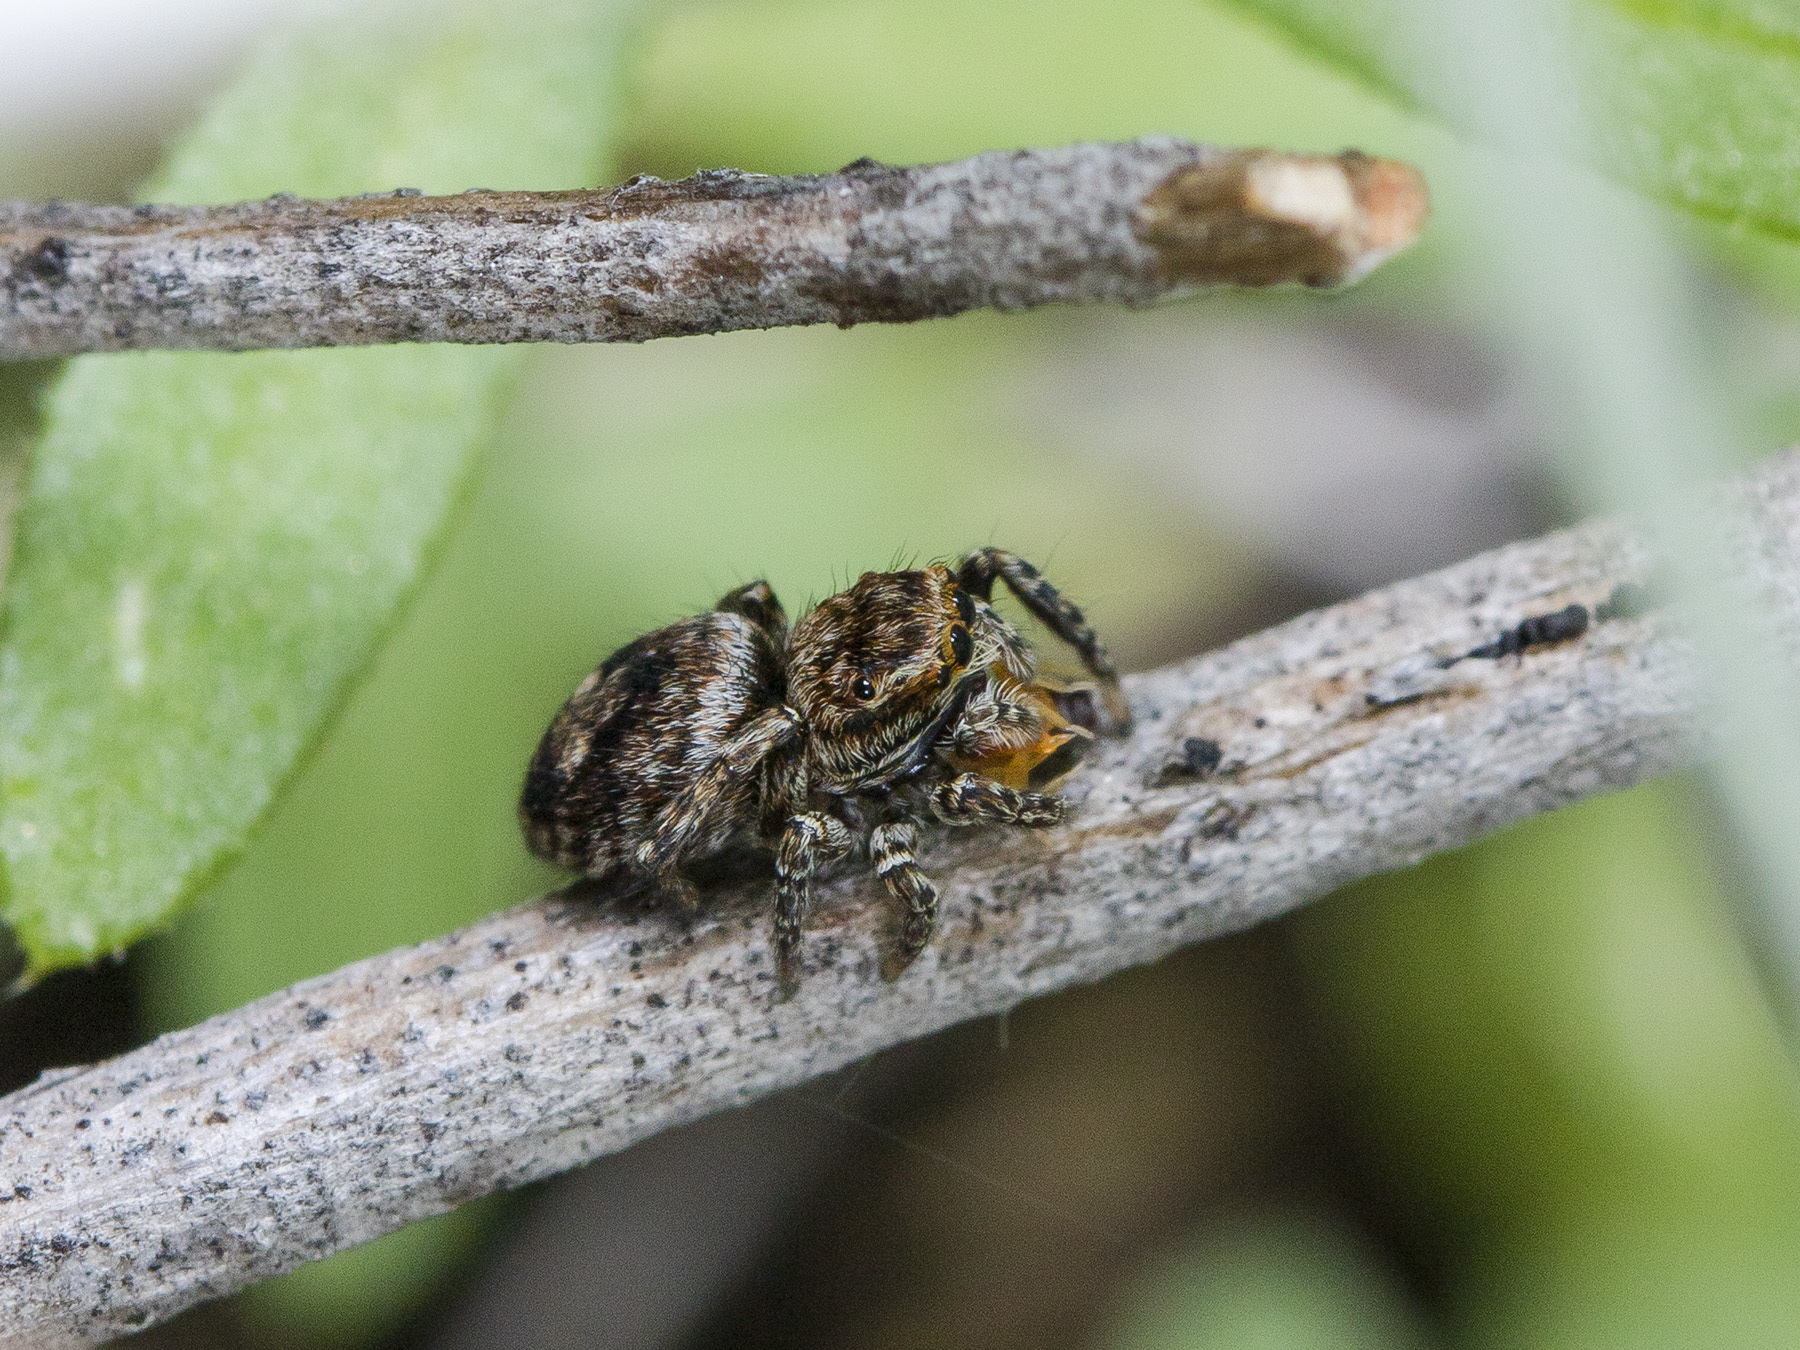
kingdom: Animalia
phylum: Arthropoda
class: Arachnida
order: Araneae
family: Salticidae
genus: Attulus
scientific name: Attulus mirandus
